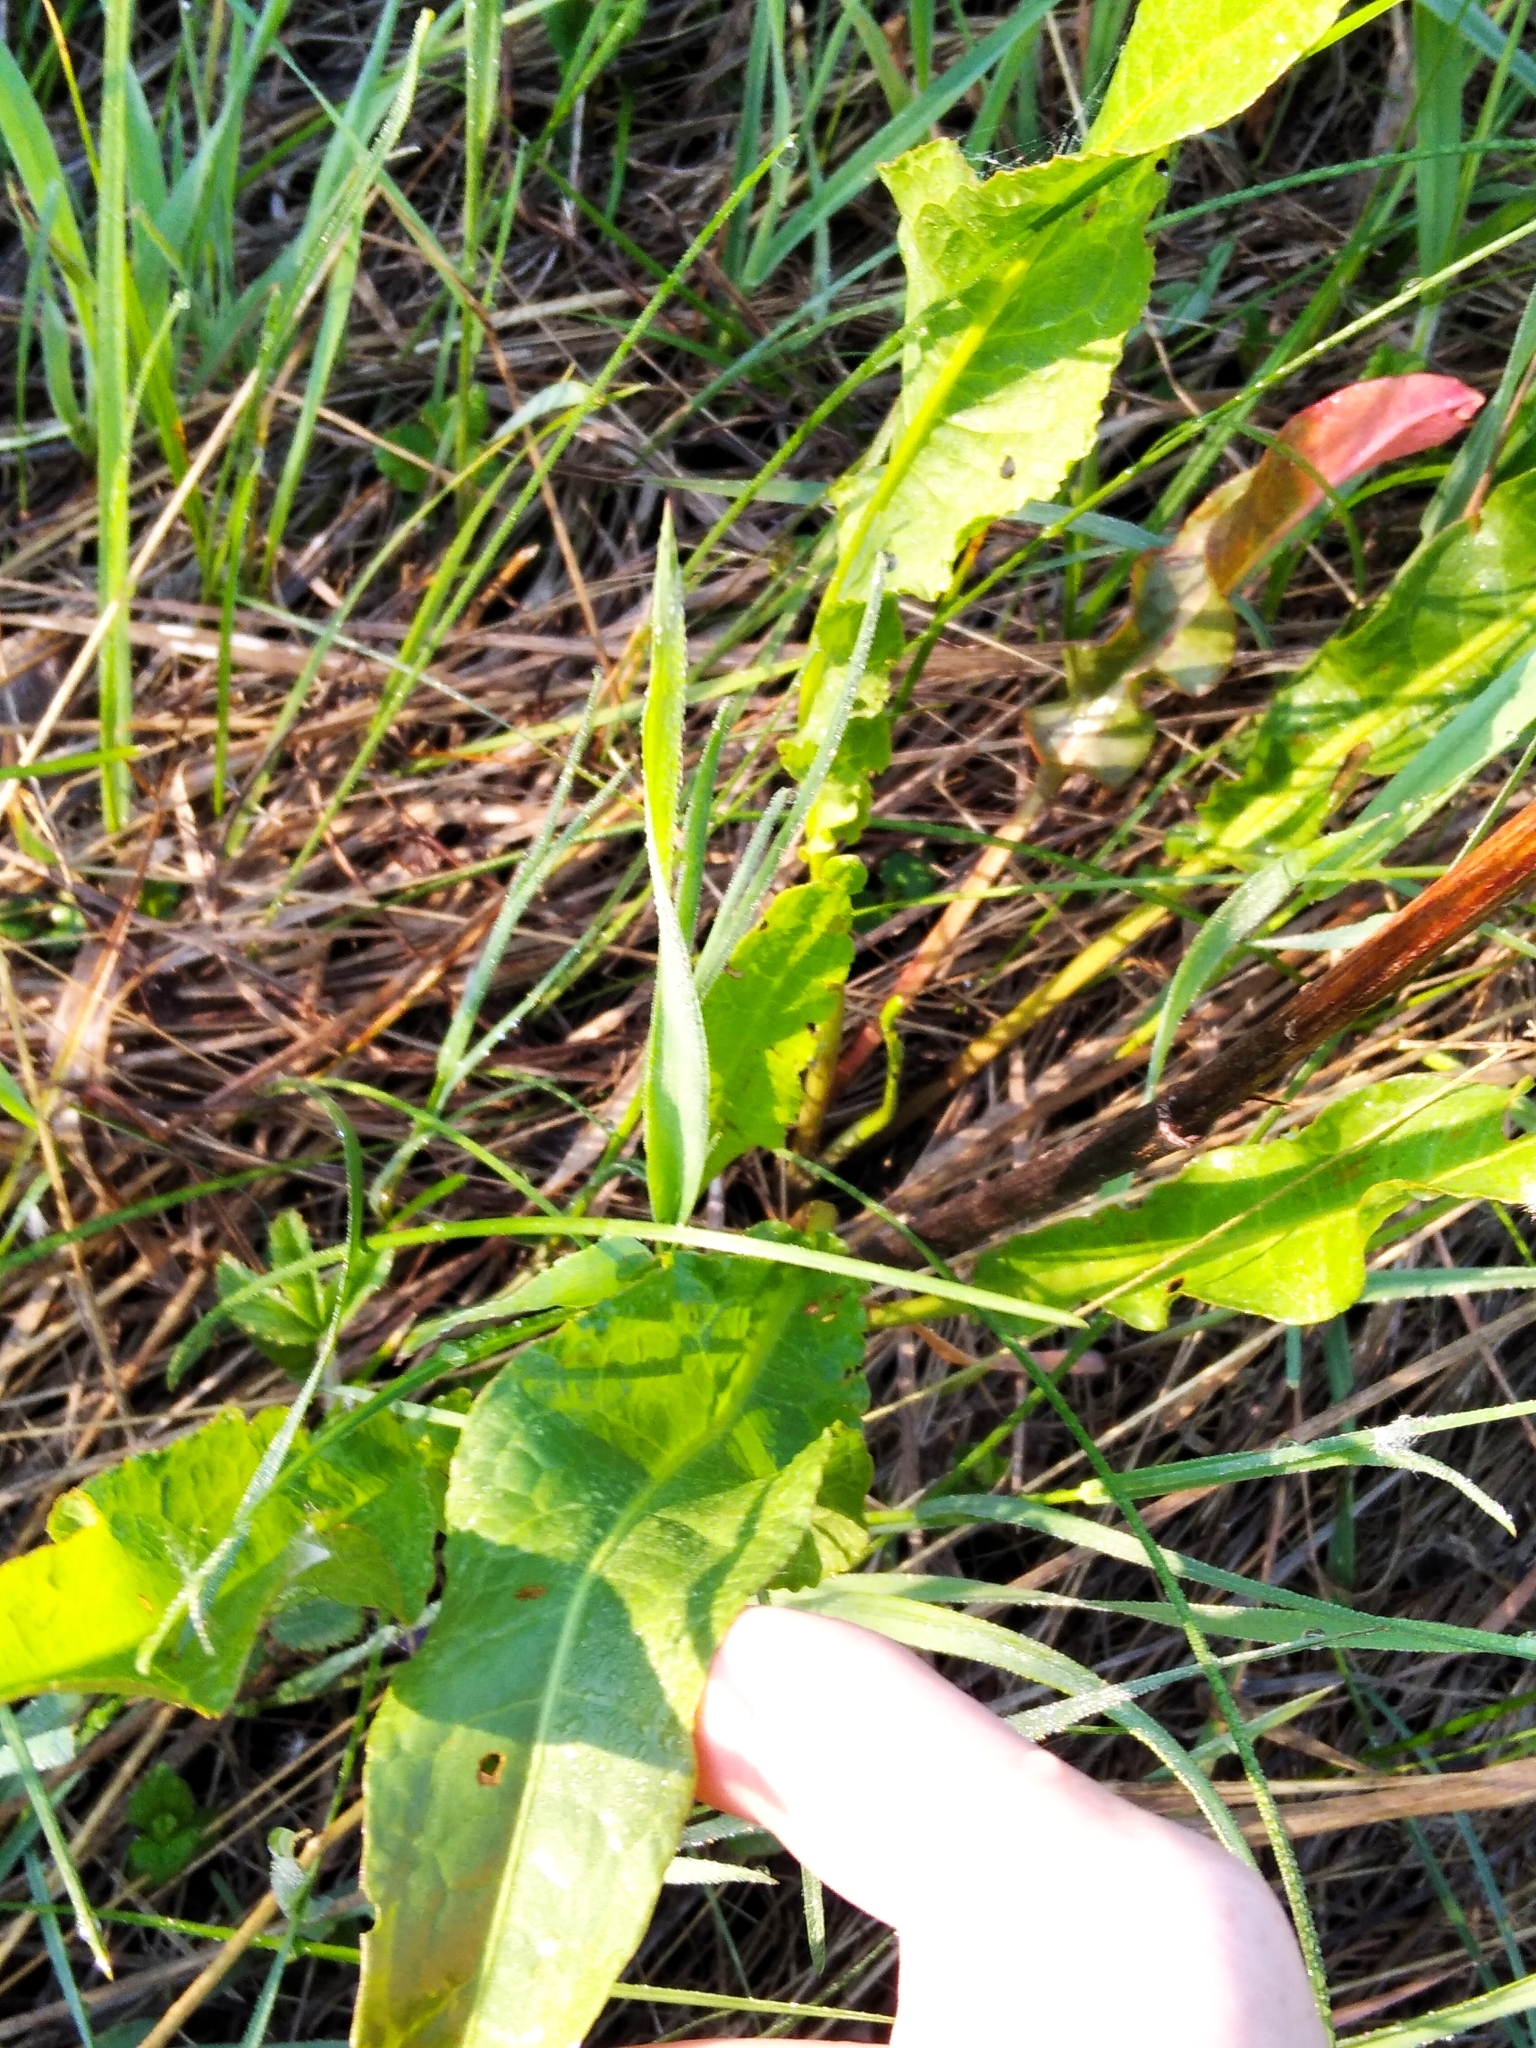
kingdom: Plantae
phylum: Tracheophyta
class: Magnoliopsida
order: Caryophyllales
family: Polygonaceae
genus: Rumex
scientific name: Rumex crispus
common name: Curled dock
